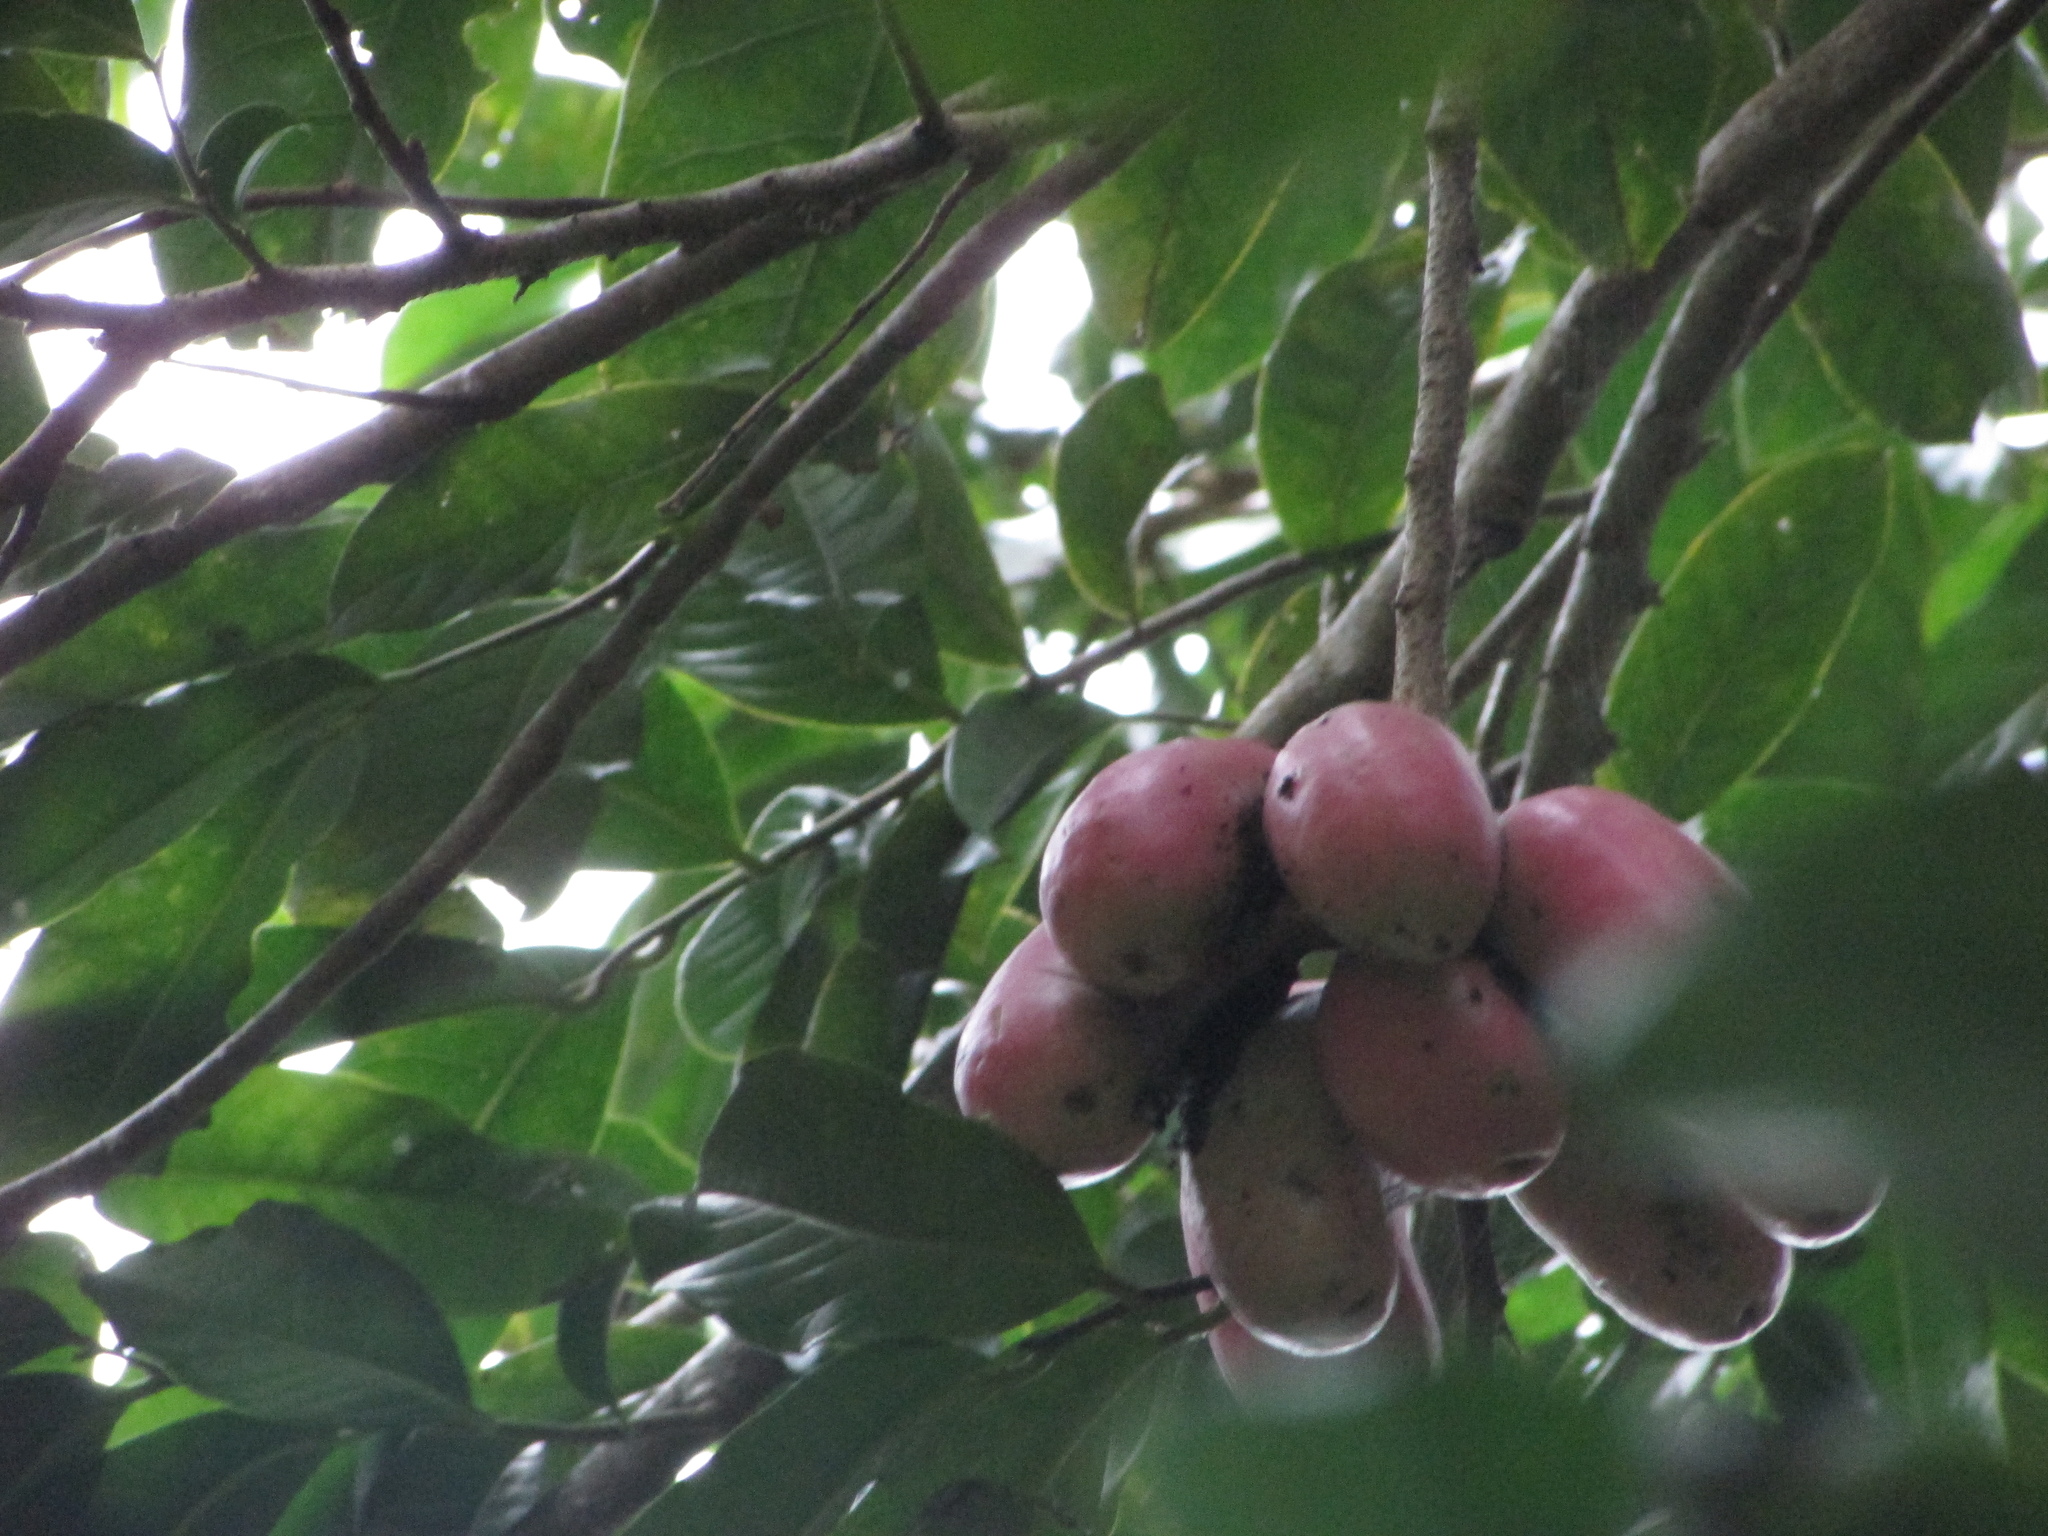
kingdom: Plantae
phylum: Tracheophyta
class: Magnoliopsida
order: Magnoliales
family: Annonaceae
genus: Cymbopetalum
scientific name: Cymbopetalum baillonii
